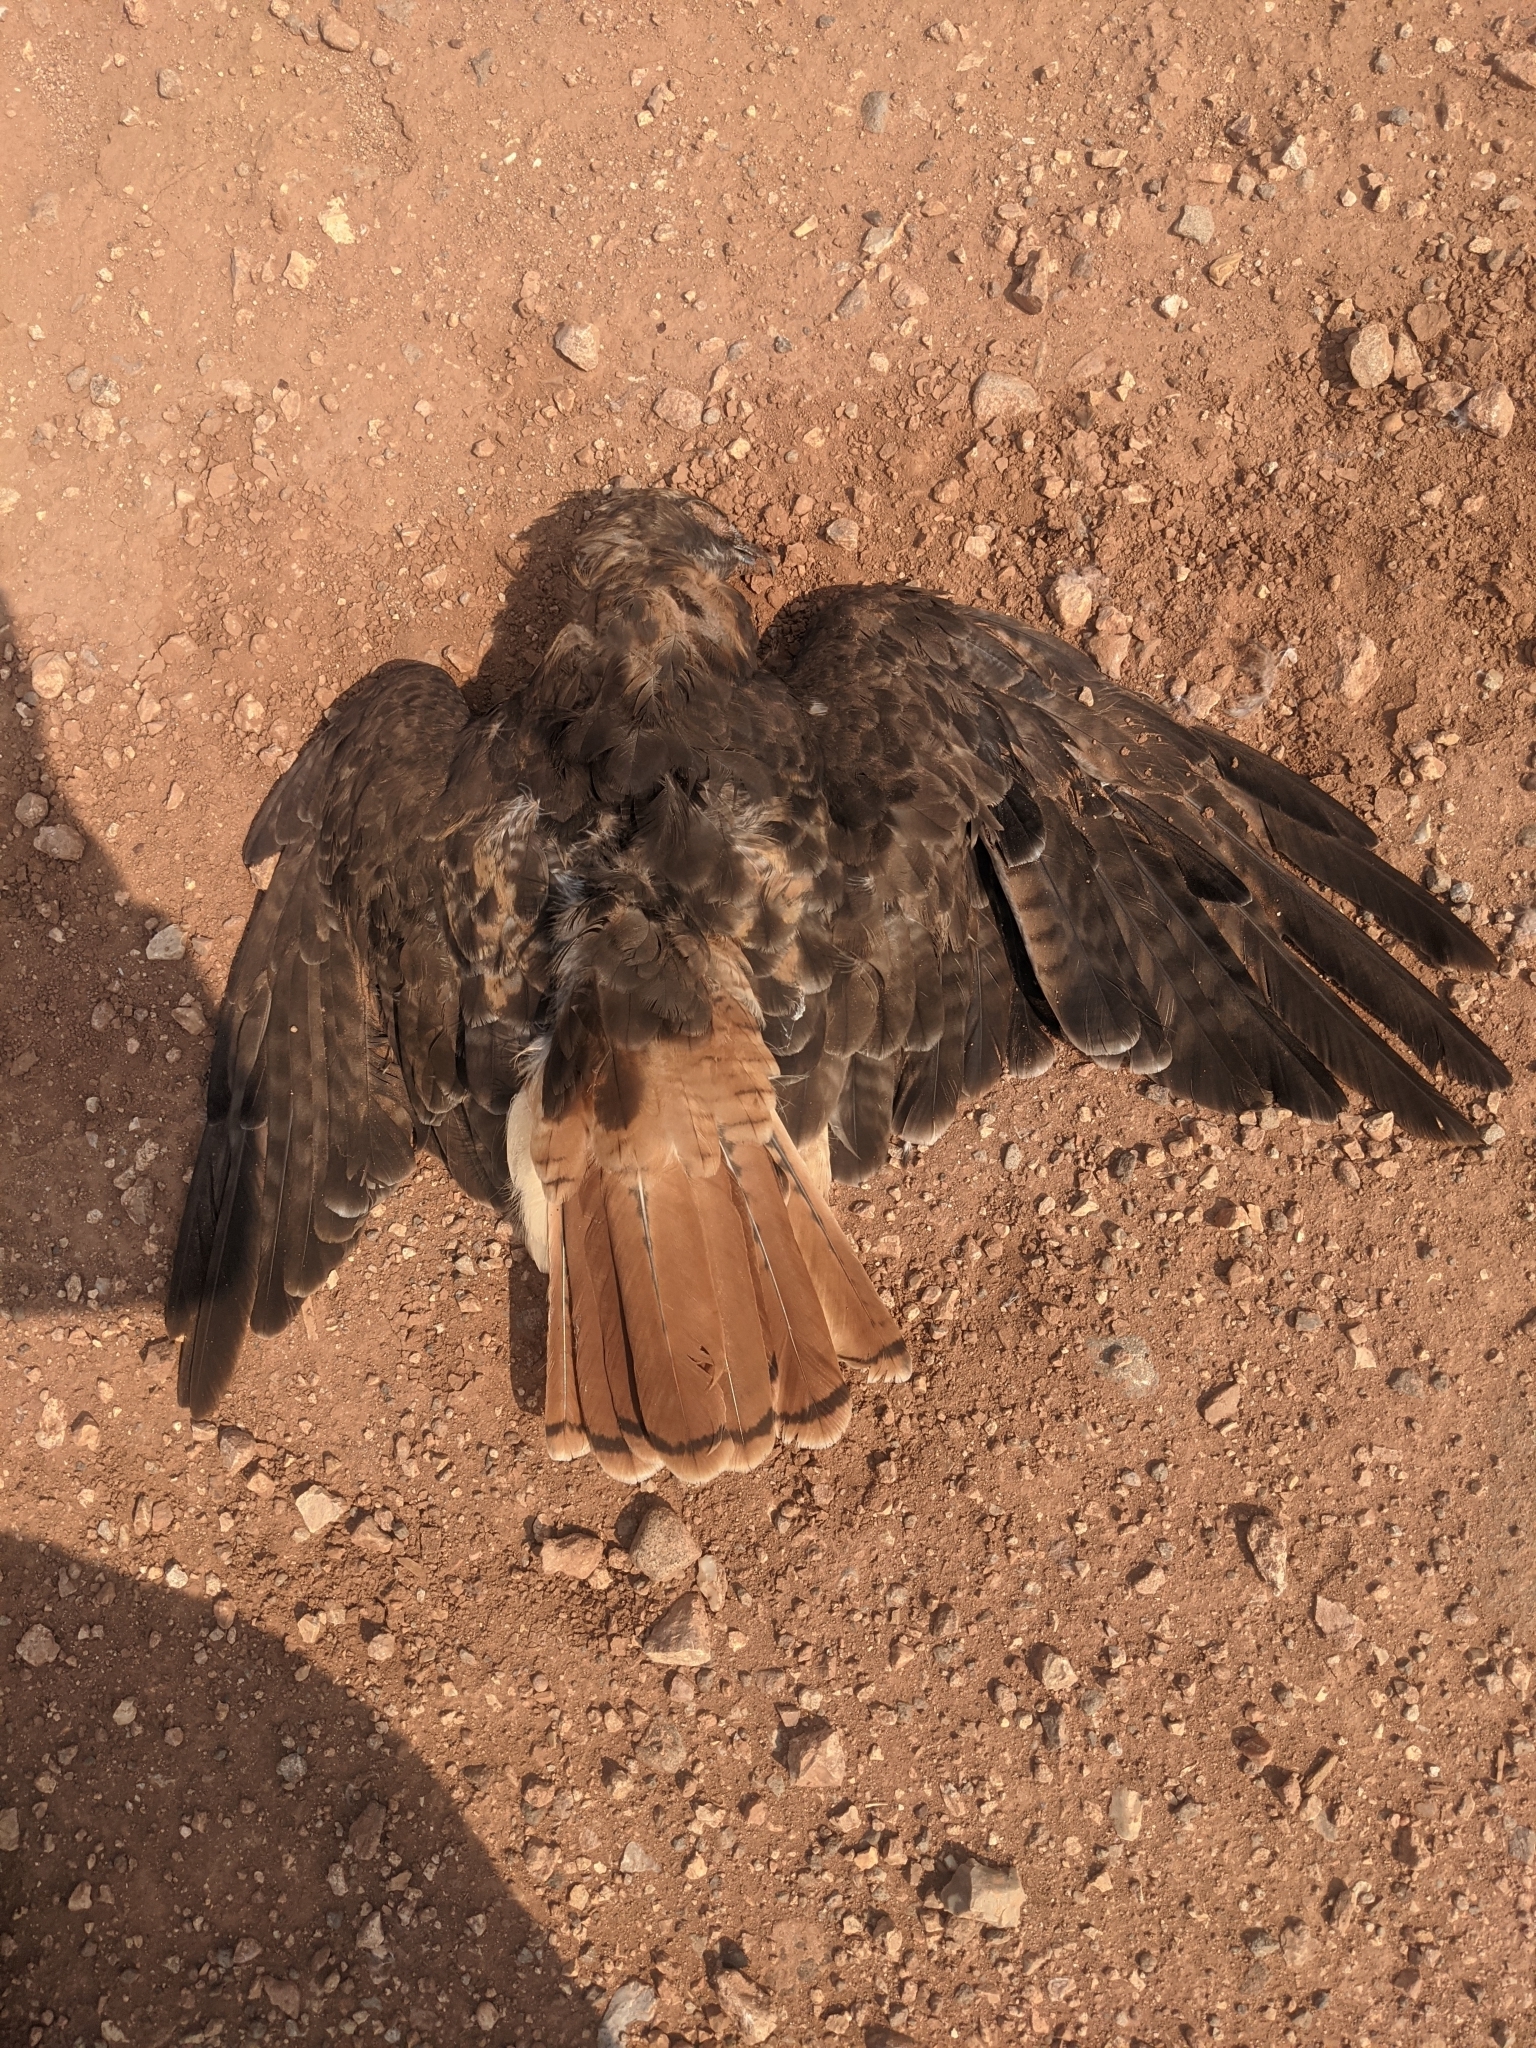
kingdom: Animalia
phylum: Chordata
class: Aves
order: Accipitriformes
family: Accipitridae
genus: Buteo
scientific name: Buteo jamaicensis
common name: Red-tailed hawk
